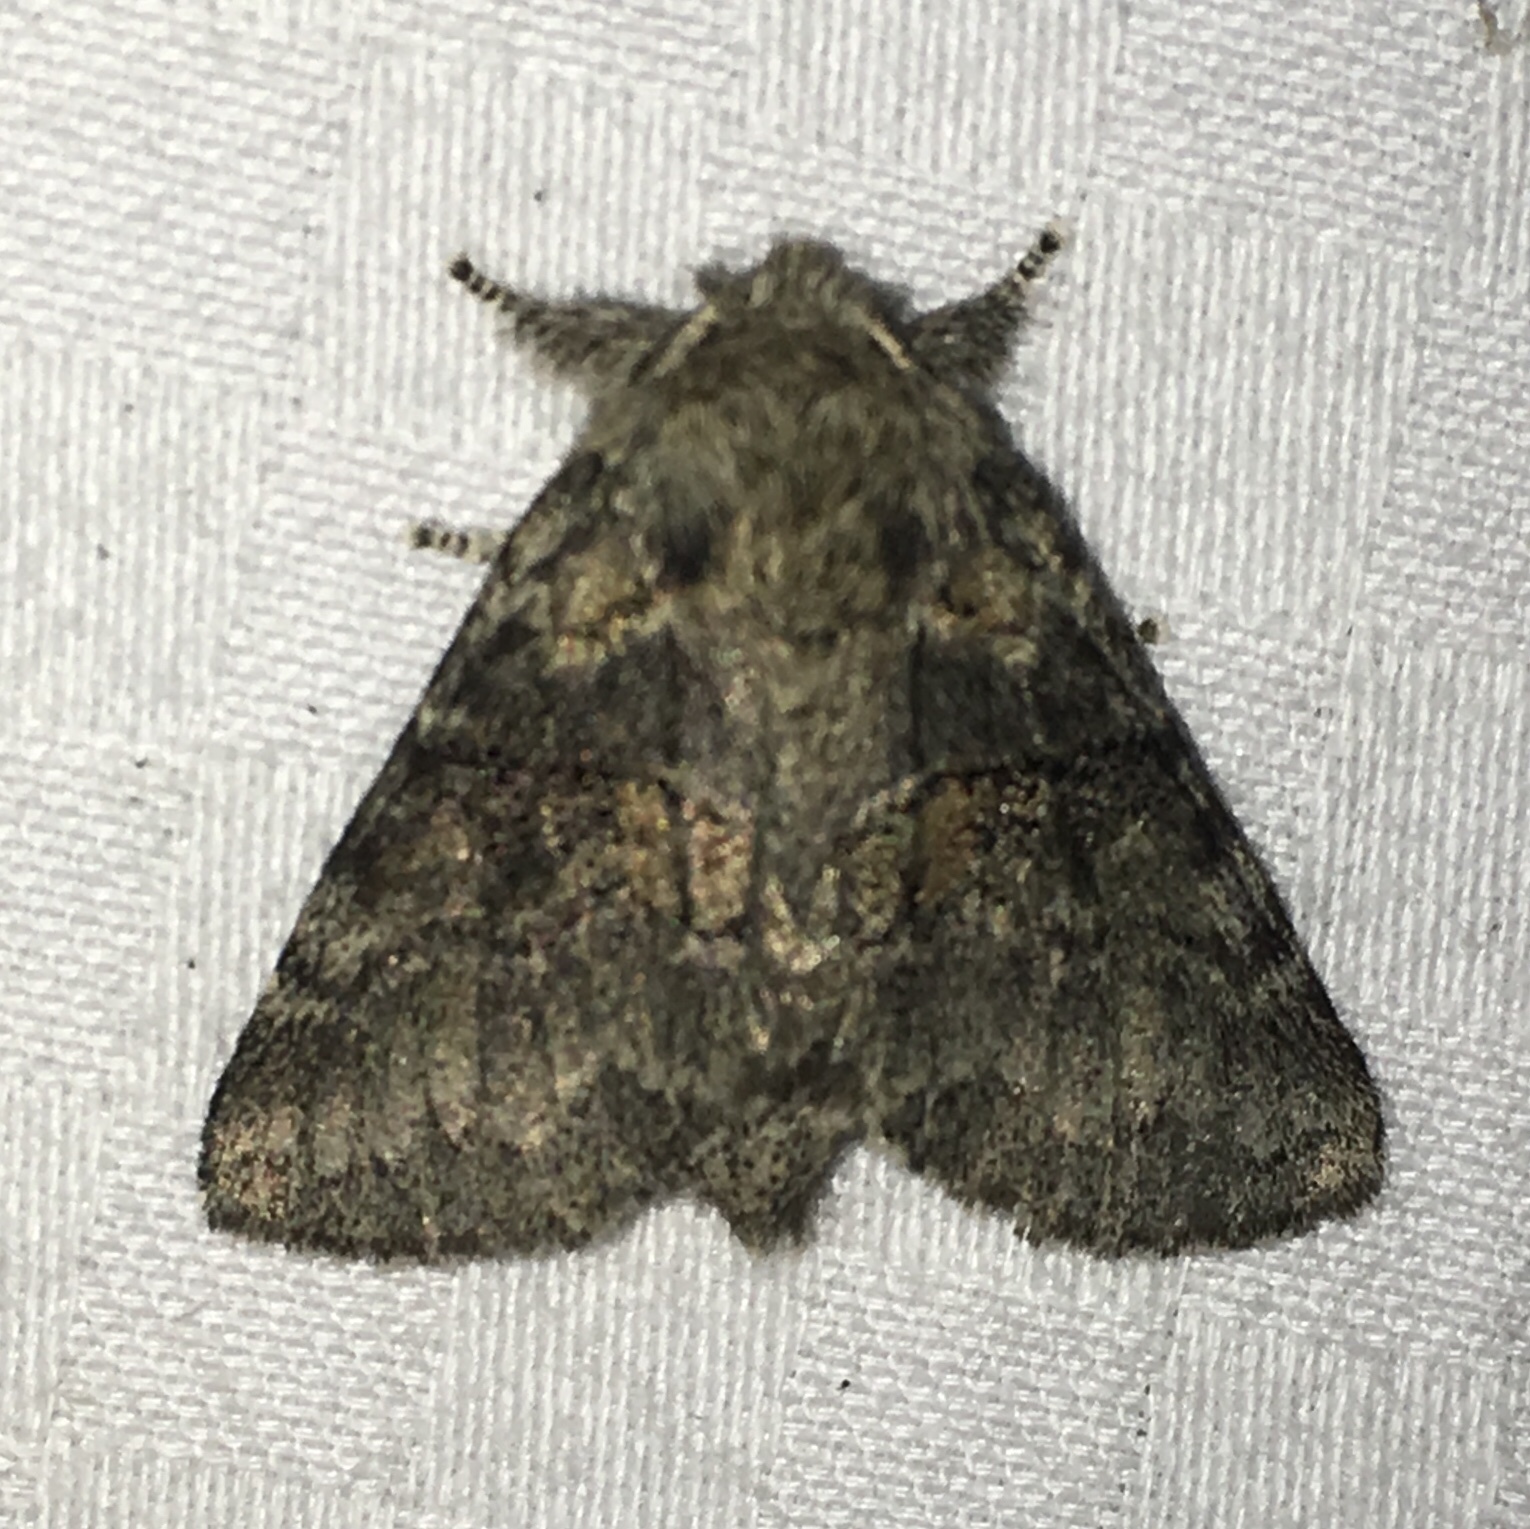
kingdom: Animalia
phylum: Arthropoda
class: Insecta
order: Lepidoptera
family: Notodontidae
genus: Gluphisia
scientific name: Gluphisia septentrionis
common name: Common gluphisia
